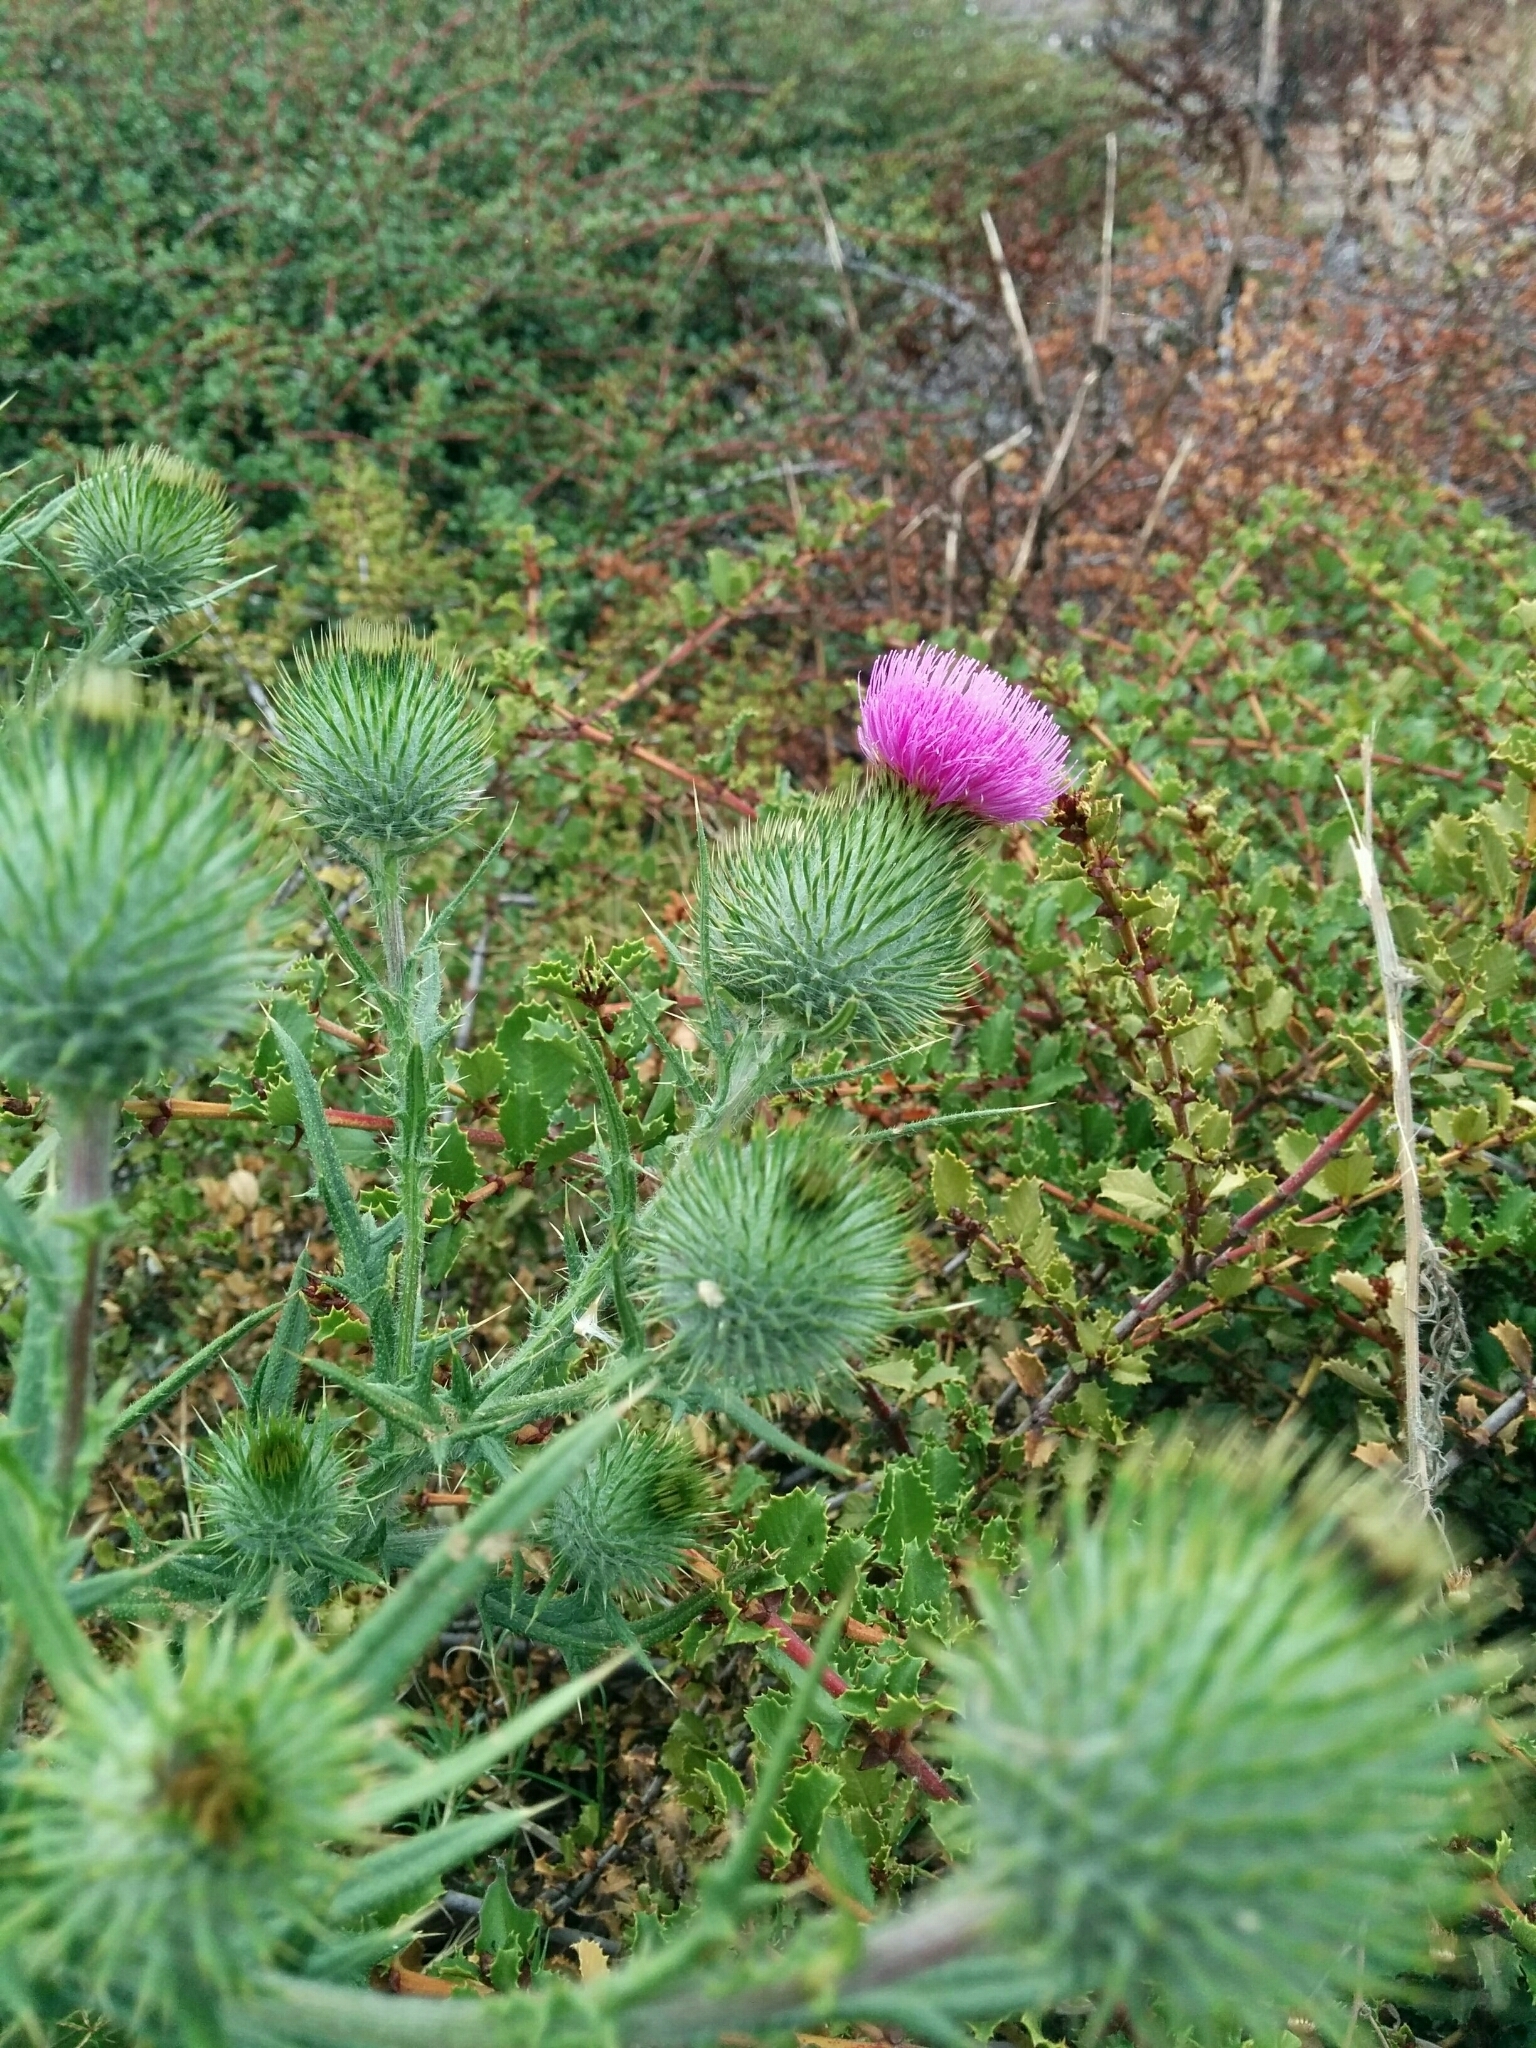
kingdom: Plantae
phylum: Tracheophyta
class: Magnoliopsida
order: Asterales
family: Asteraceae
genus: Cirsium
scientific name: Cirsium vulgare
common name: Bull thistle
